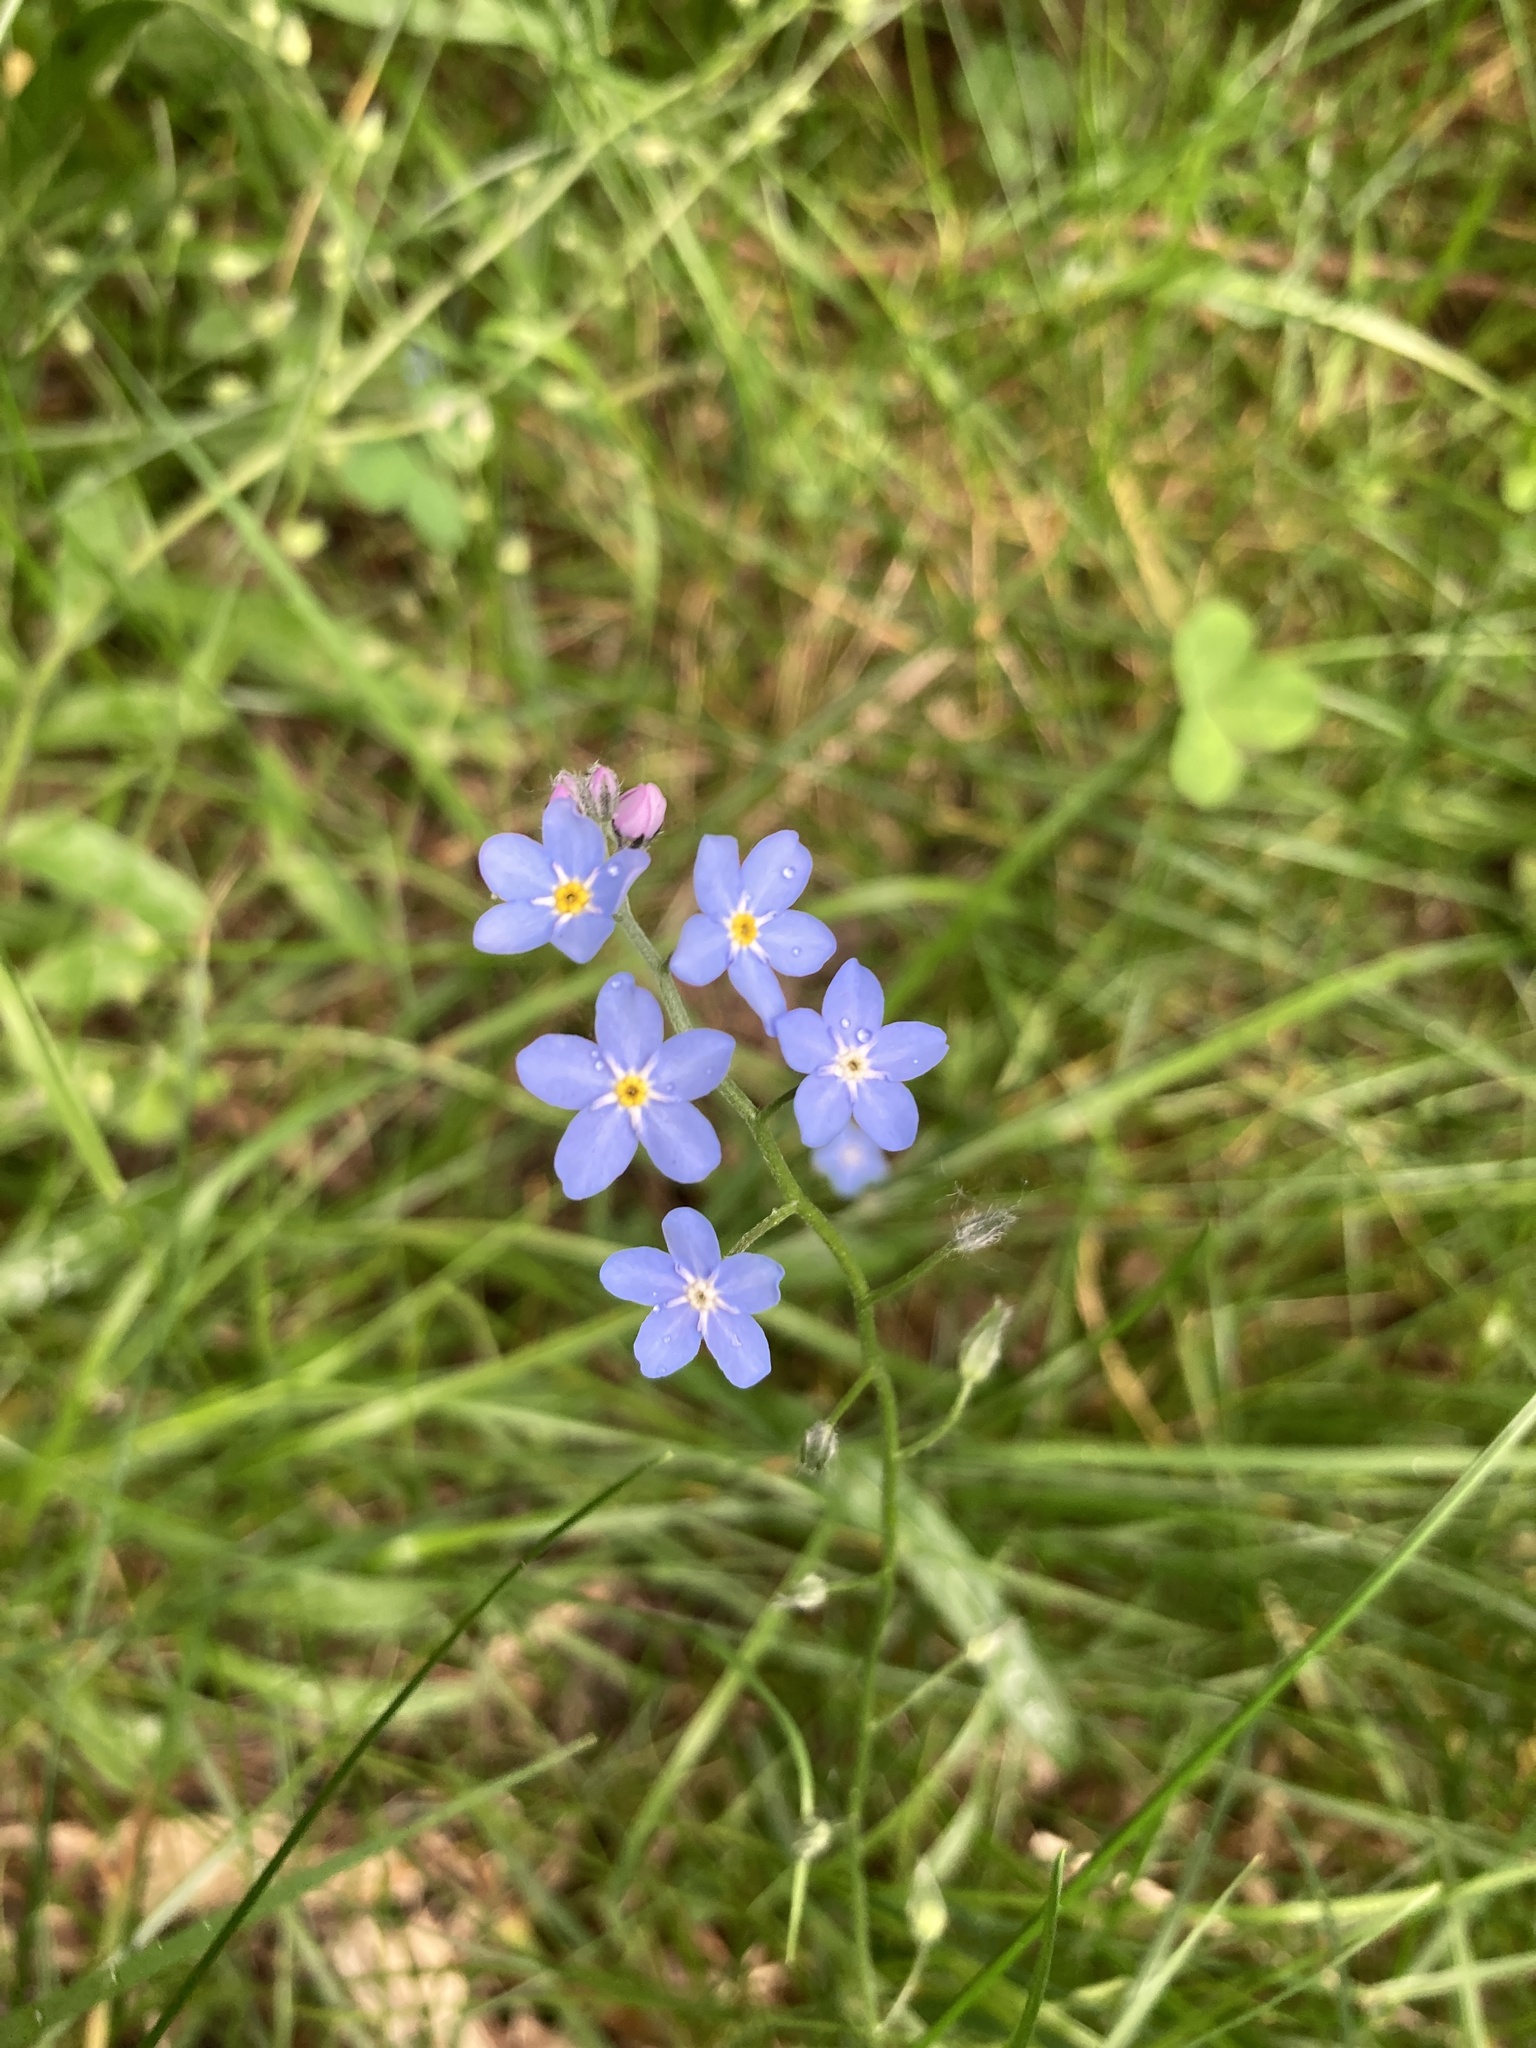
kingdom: Plantae
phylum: Tracheophyta
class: Magnoliopsida
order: Boraginales
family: Boraginaceae
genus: Myosotis
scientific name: Myosotis sylvatica
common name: Wood forget-me-not
